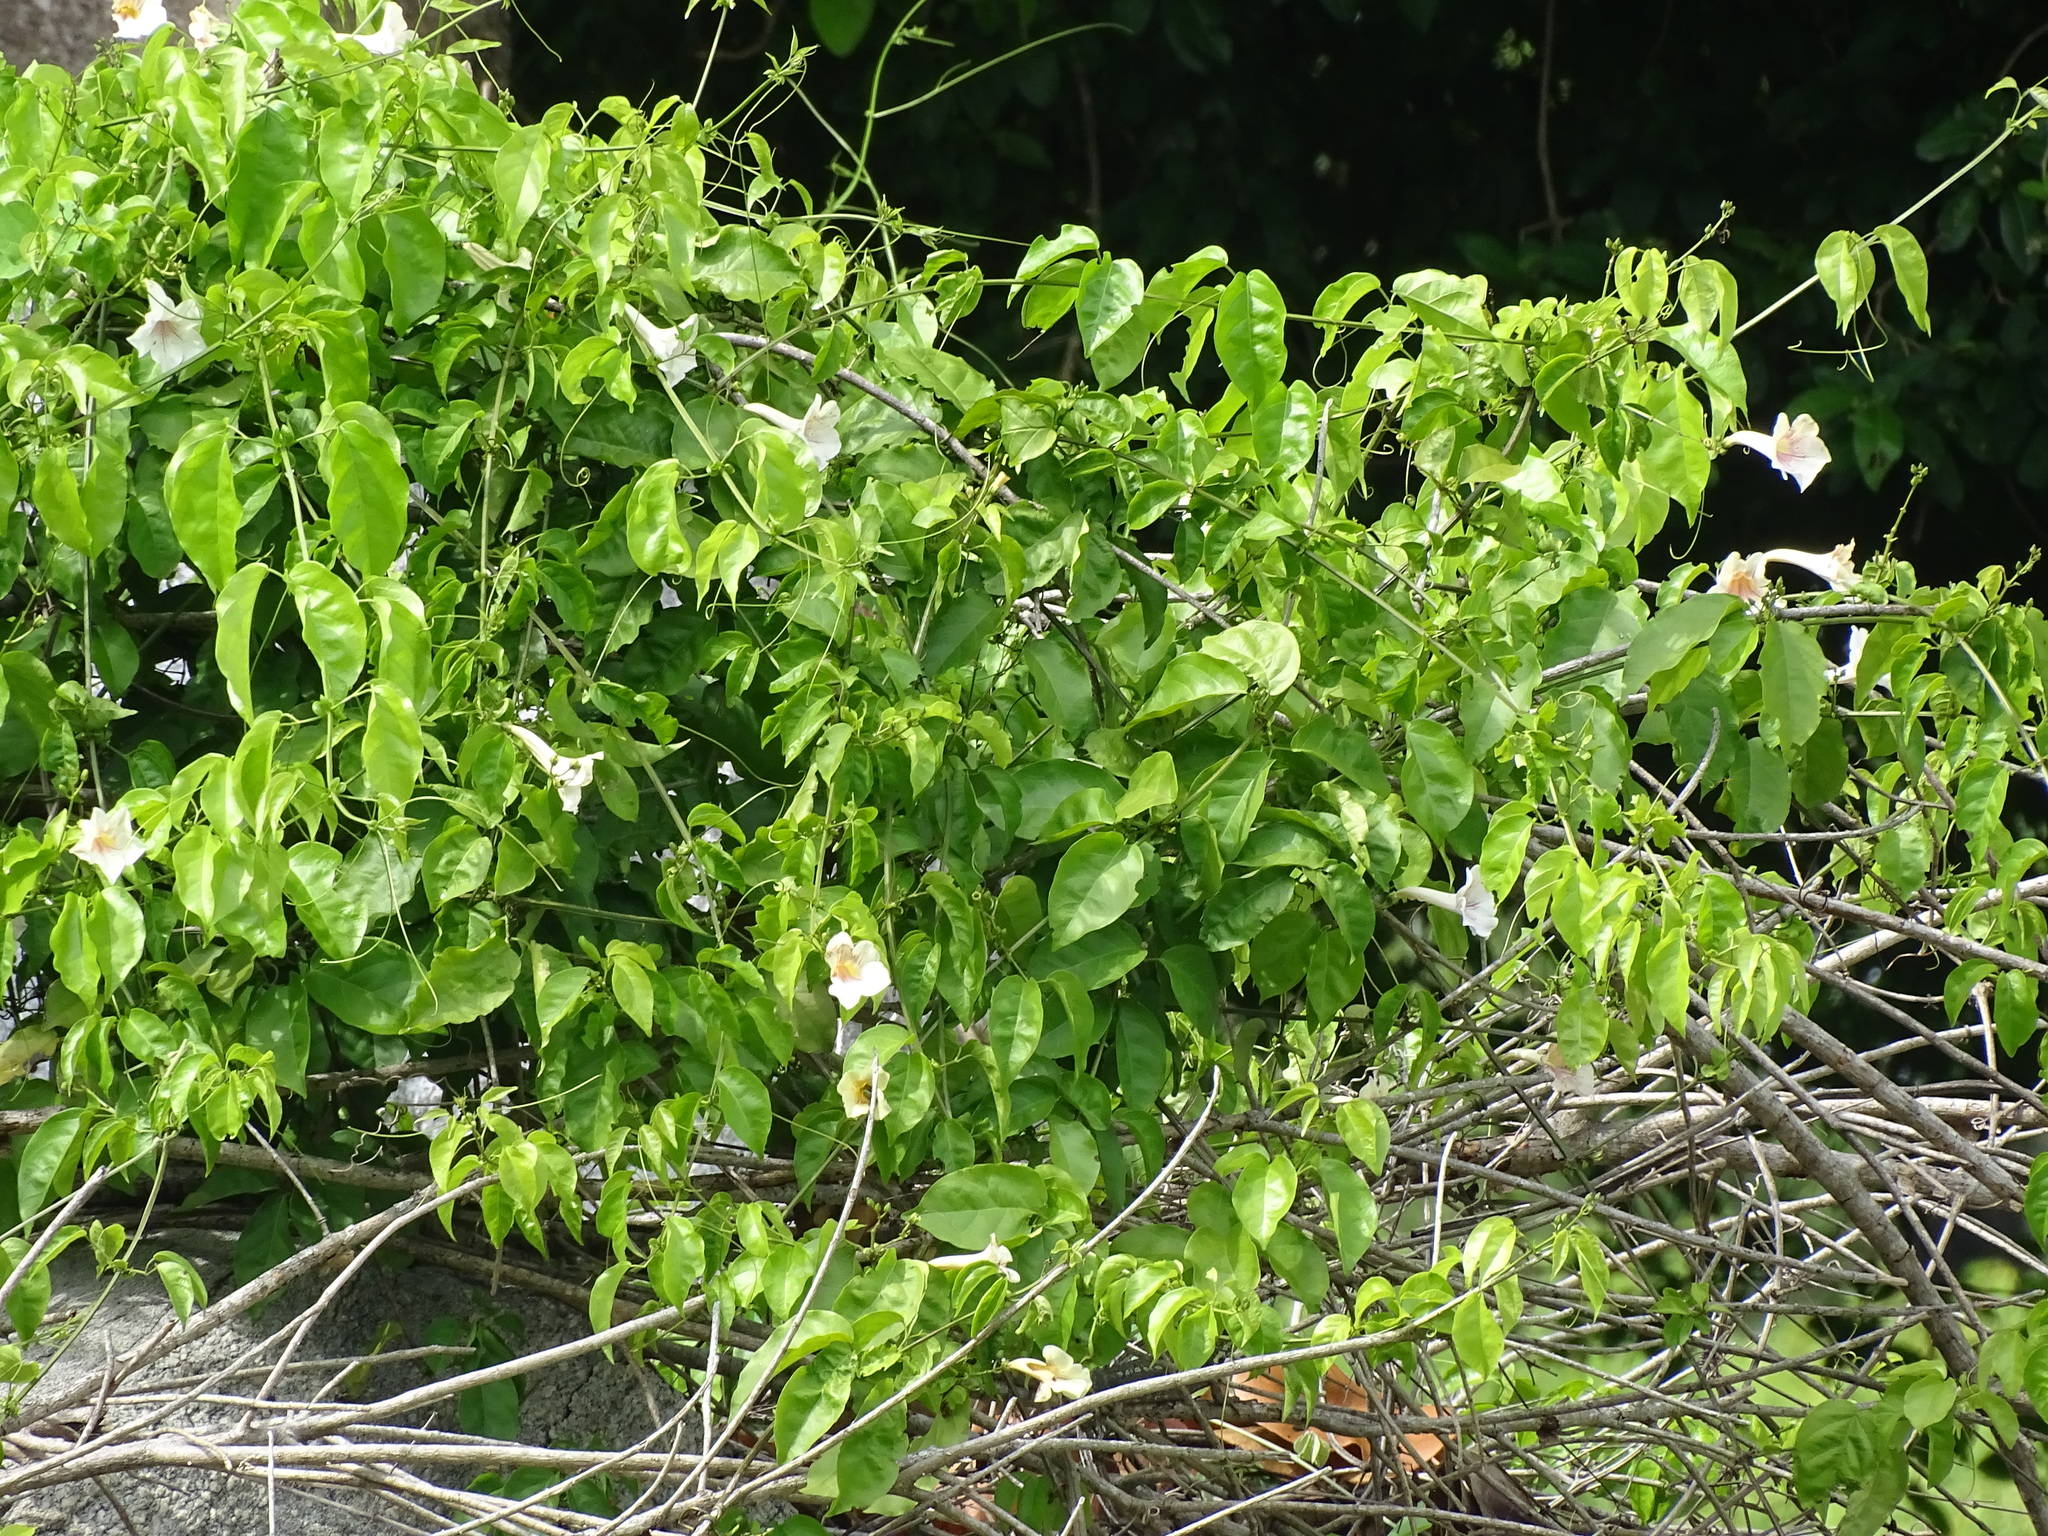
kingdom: Plantae
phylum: Tracheophyta
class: Magnoliopsida
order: Lamiales
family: Bignoniaceae
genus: Bignonia
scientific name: Bignonia potosina
